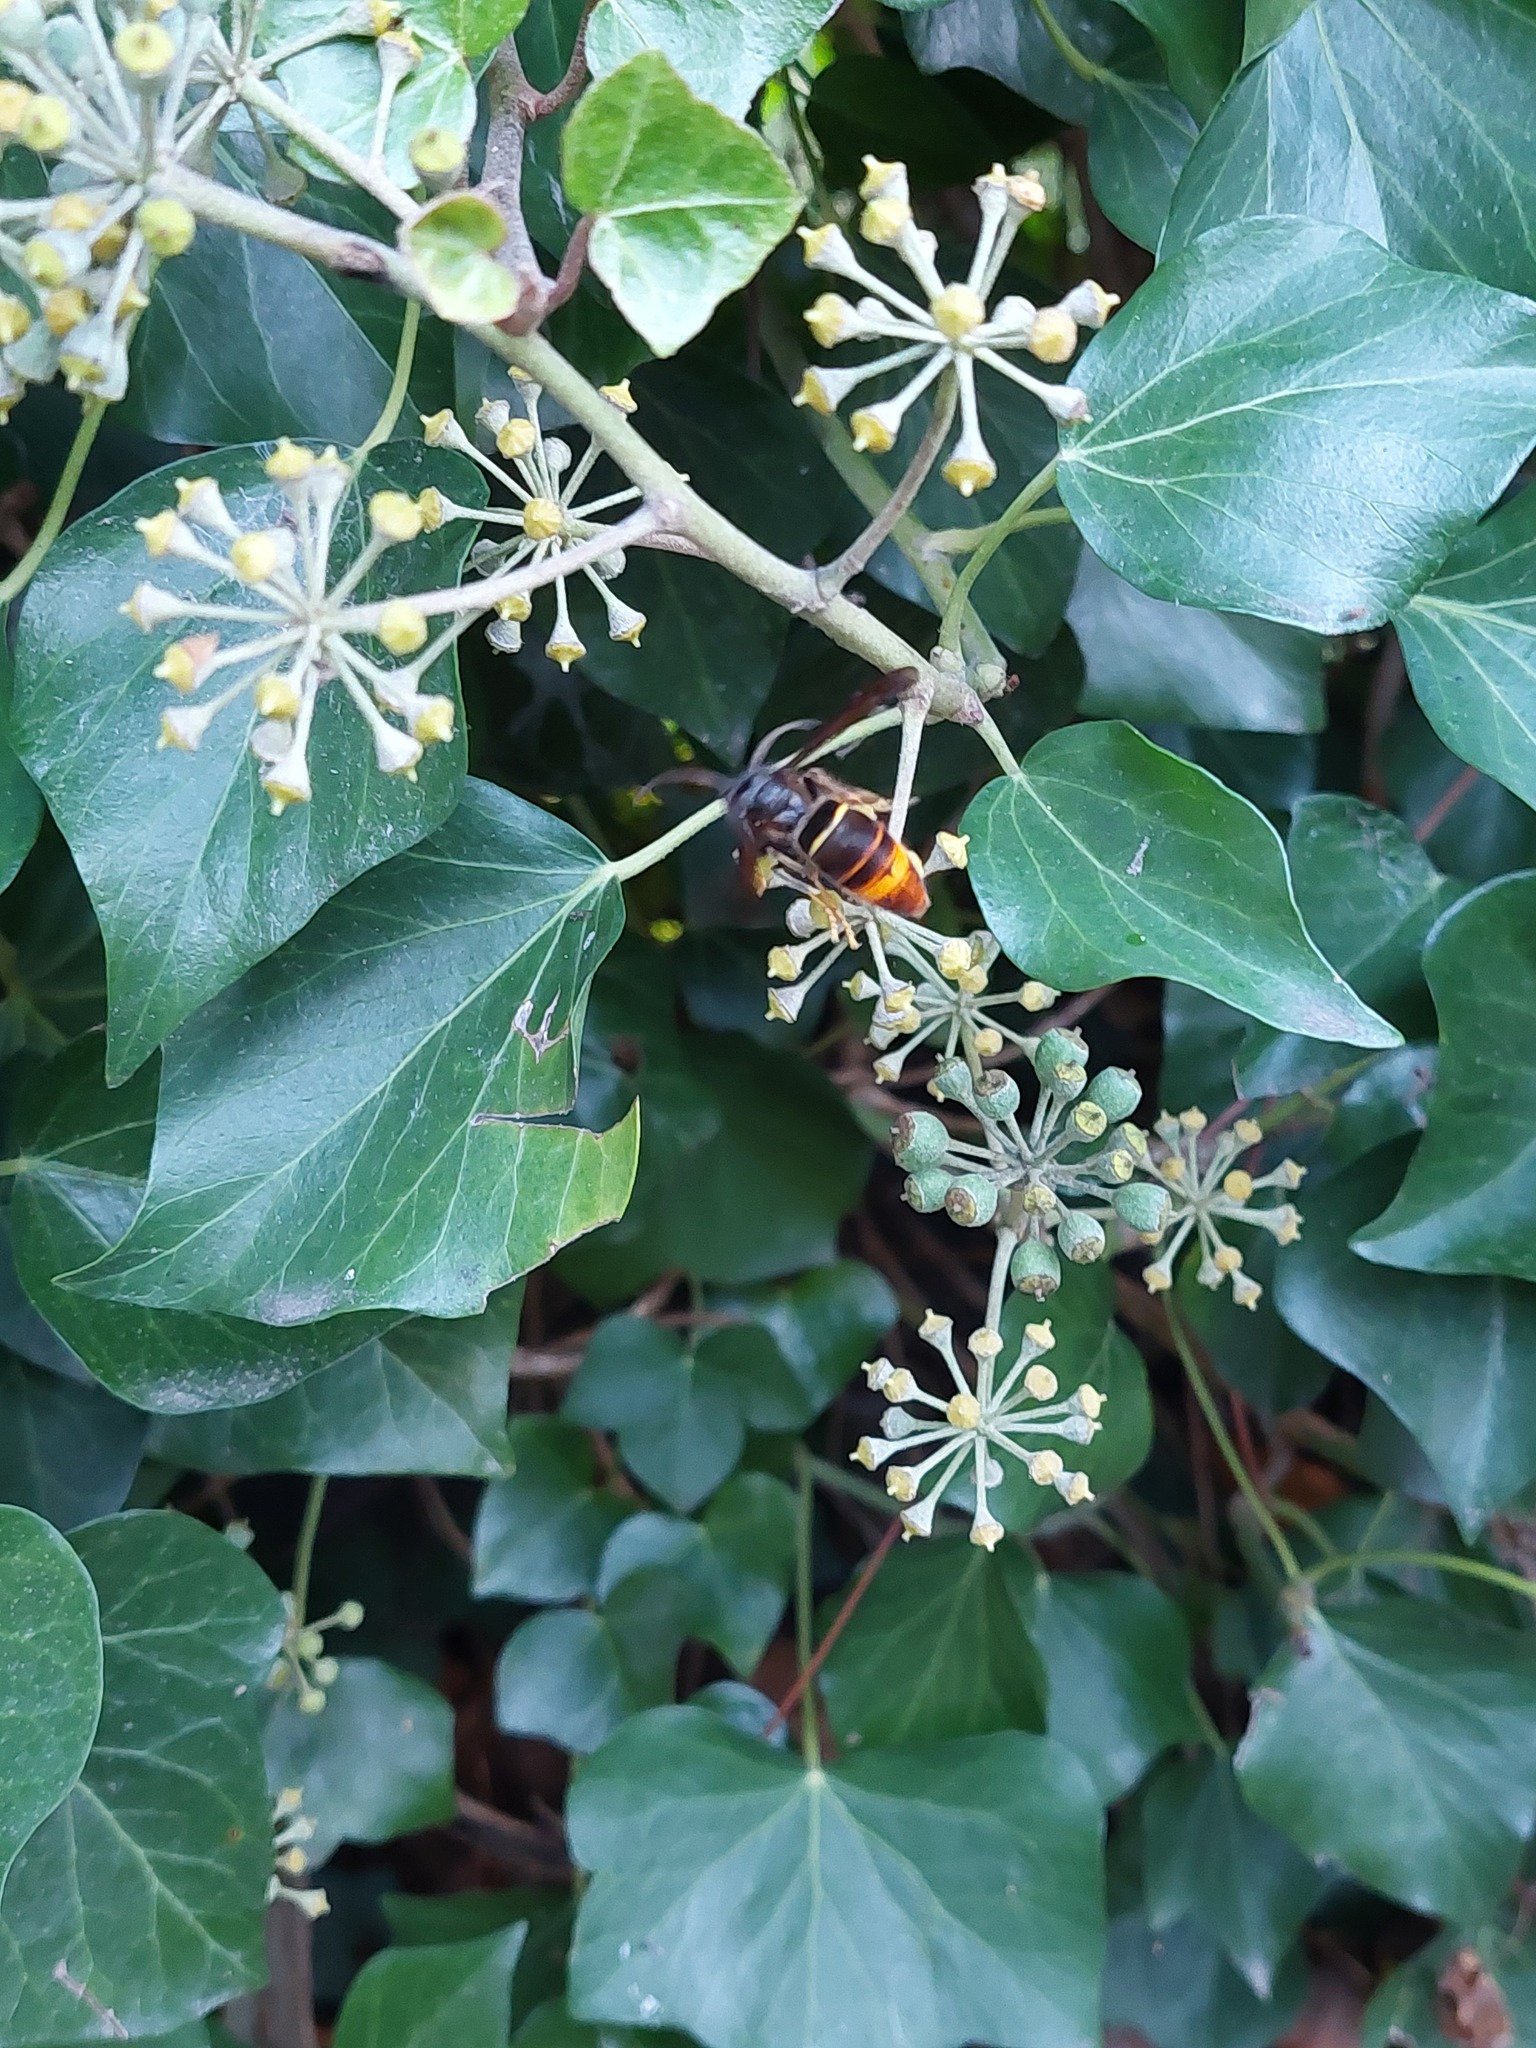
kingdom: Animalia
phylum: Arthropoda
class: Insecta
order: Hymenoptera
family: Vespidae
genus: Vespa
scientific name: Vespa velutina
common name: Asian hornet
